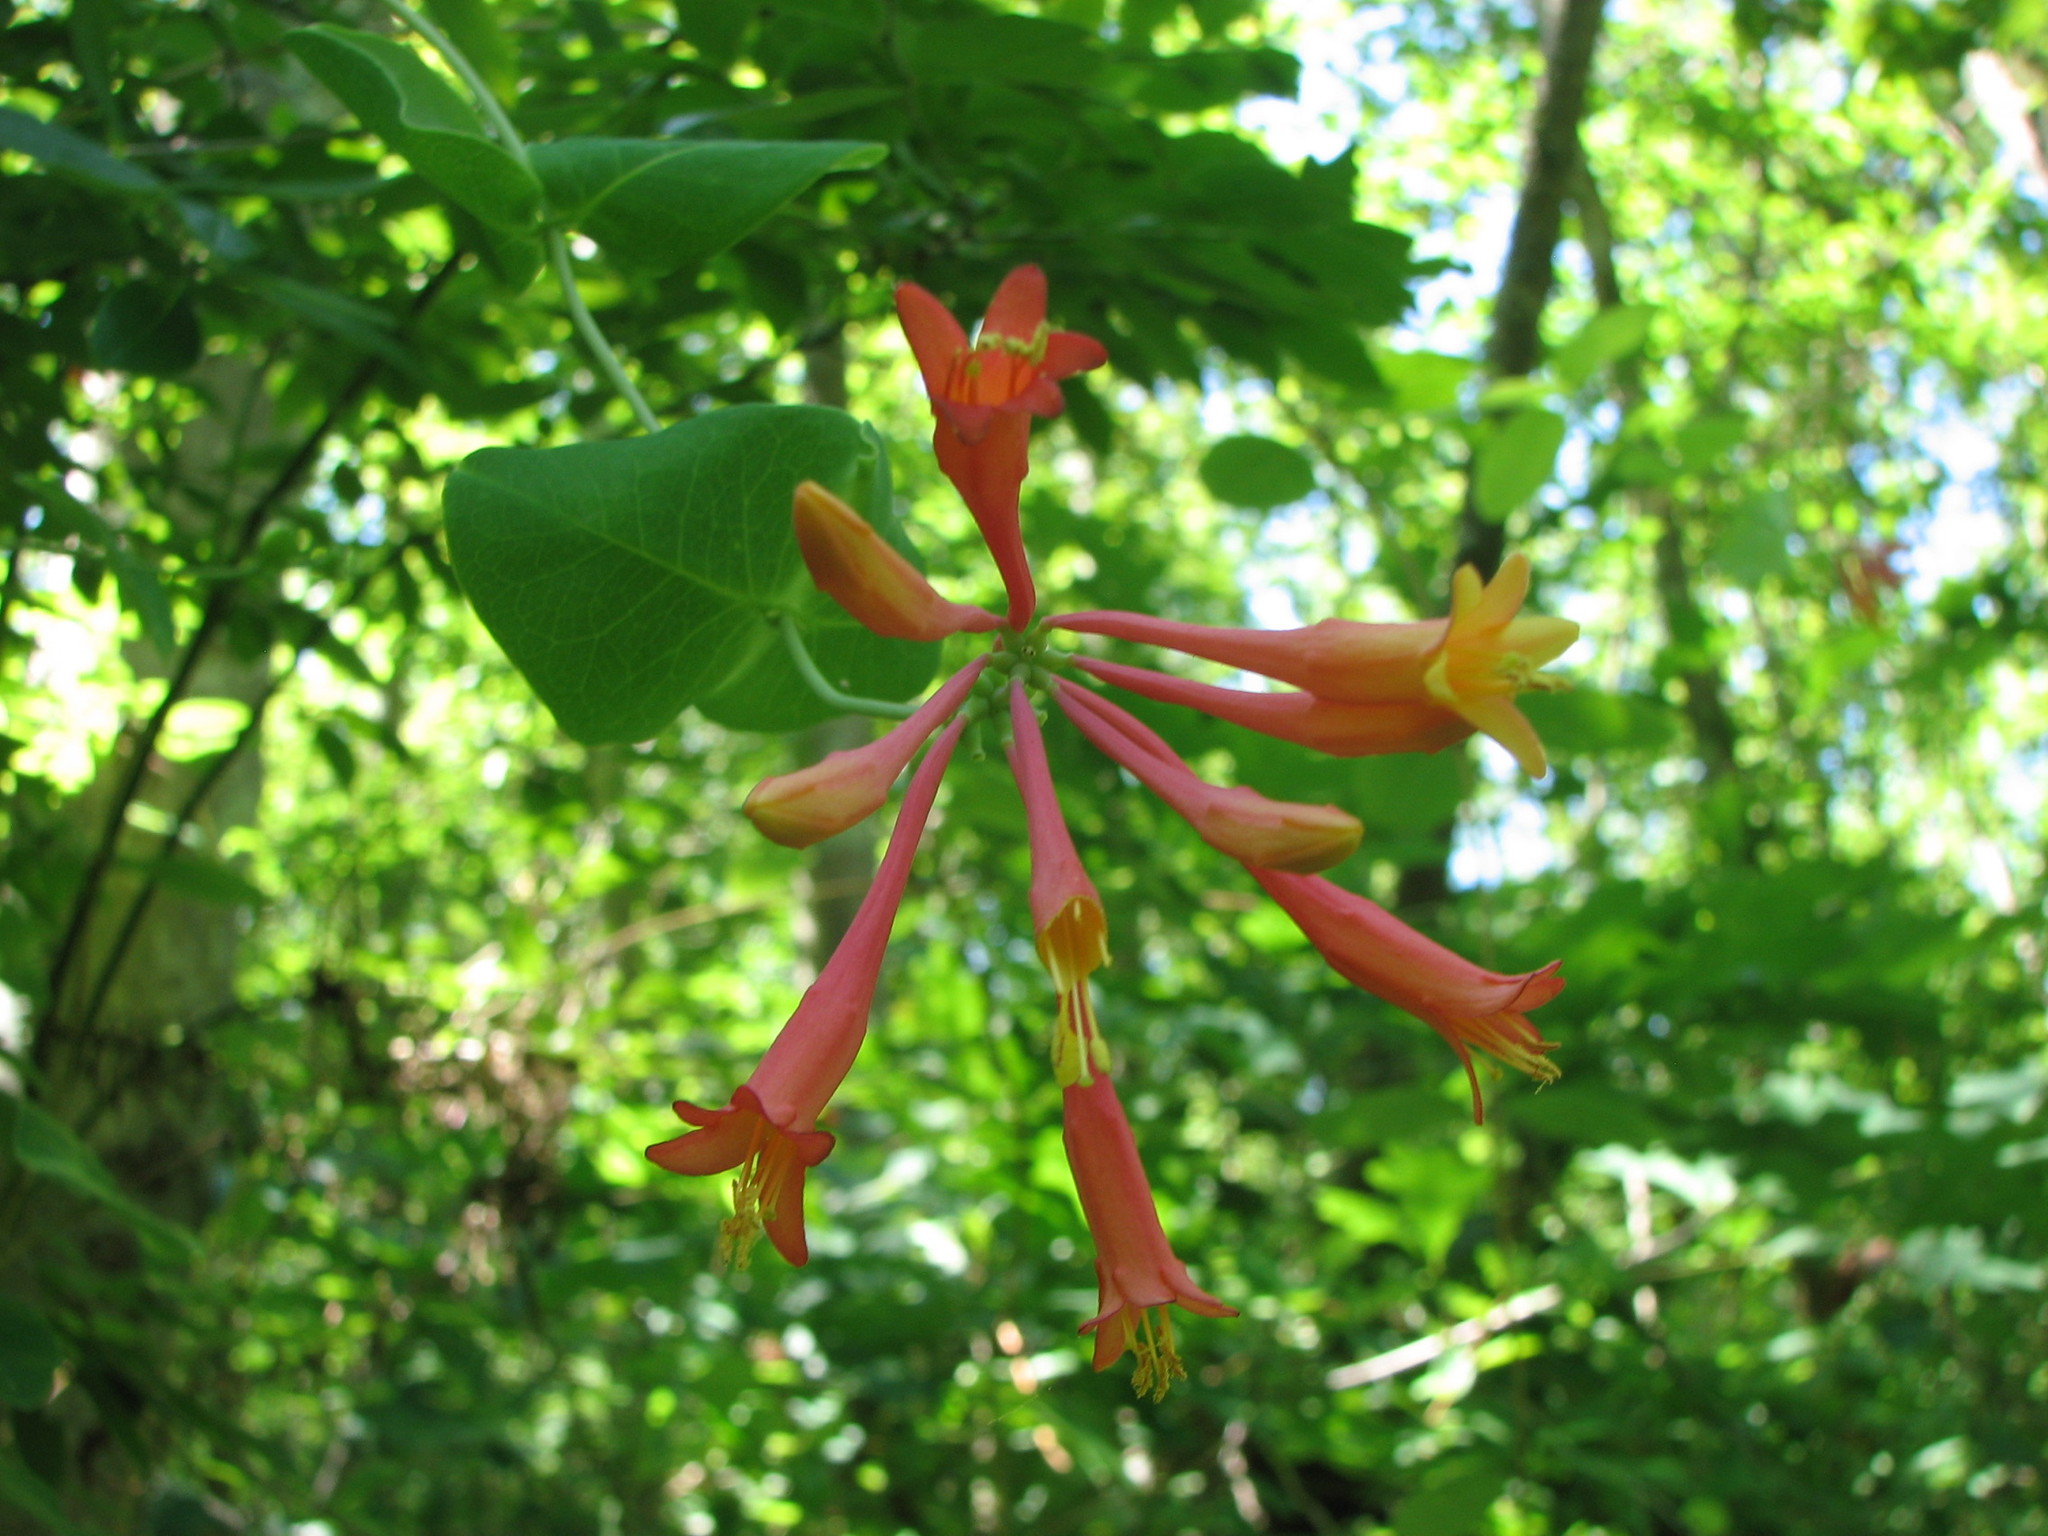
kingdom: Plantae
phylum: Tracheophyta
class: Magnoliopsida
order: Dipsacales
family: Caprifoliaceae
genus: Lonicera
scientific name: Lonicera sempervirens
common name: Coral honeysuckle
